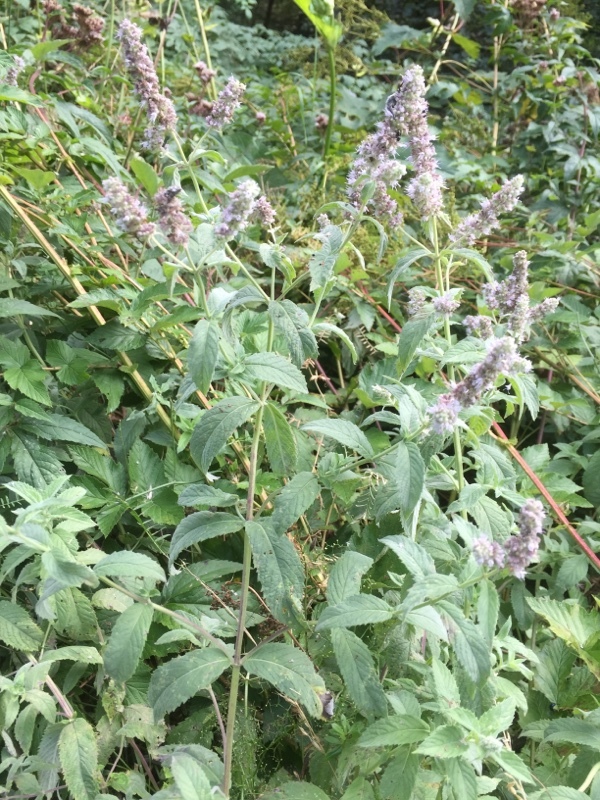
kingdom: Plantae
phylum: Tracheophyta
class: Magnoliopsida
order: Lamiales
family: Lamiaceae
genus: Mentha
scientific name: Mentha longifolia
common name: Horse mint
